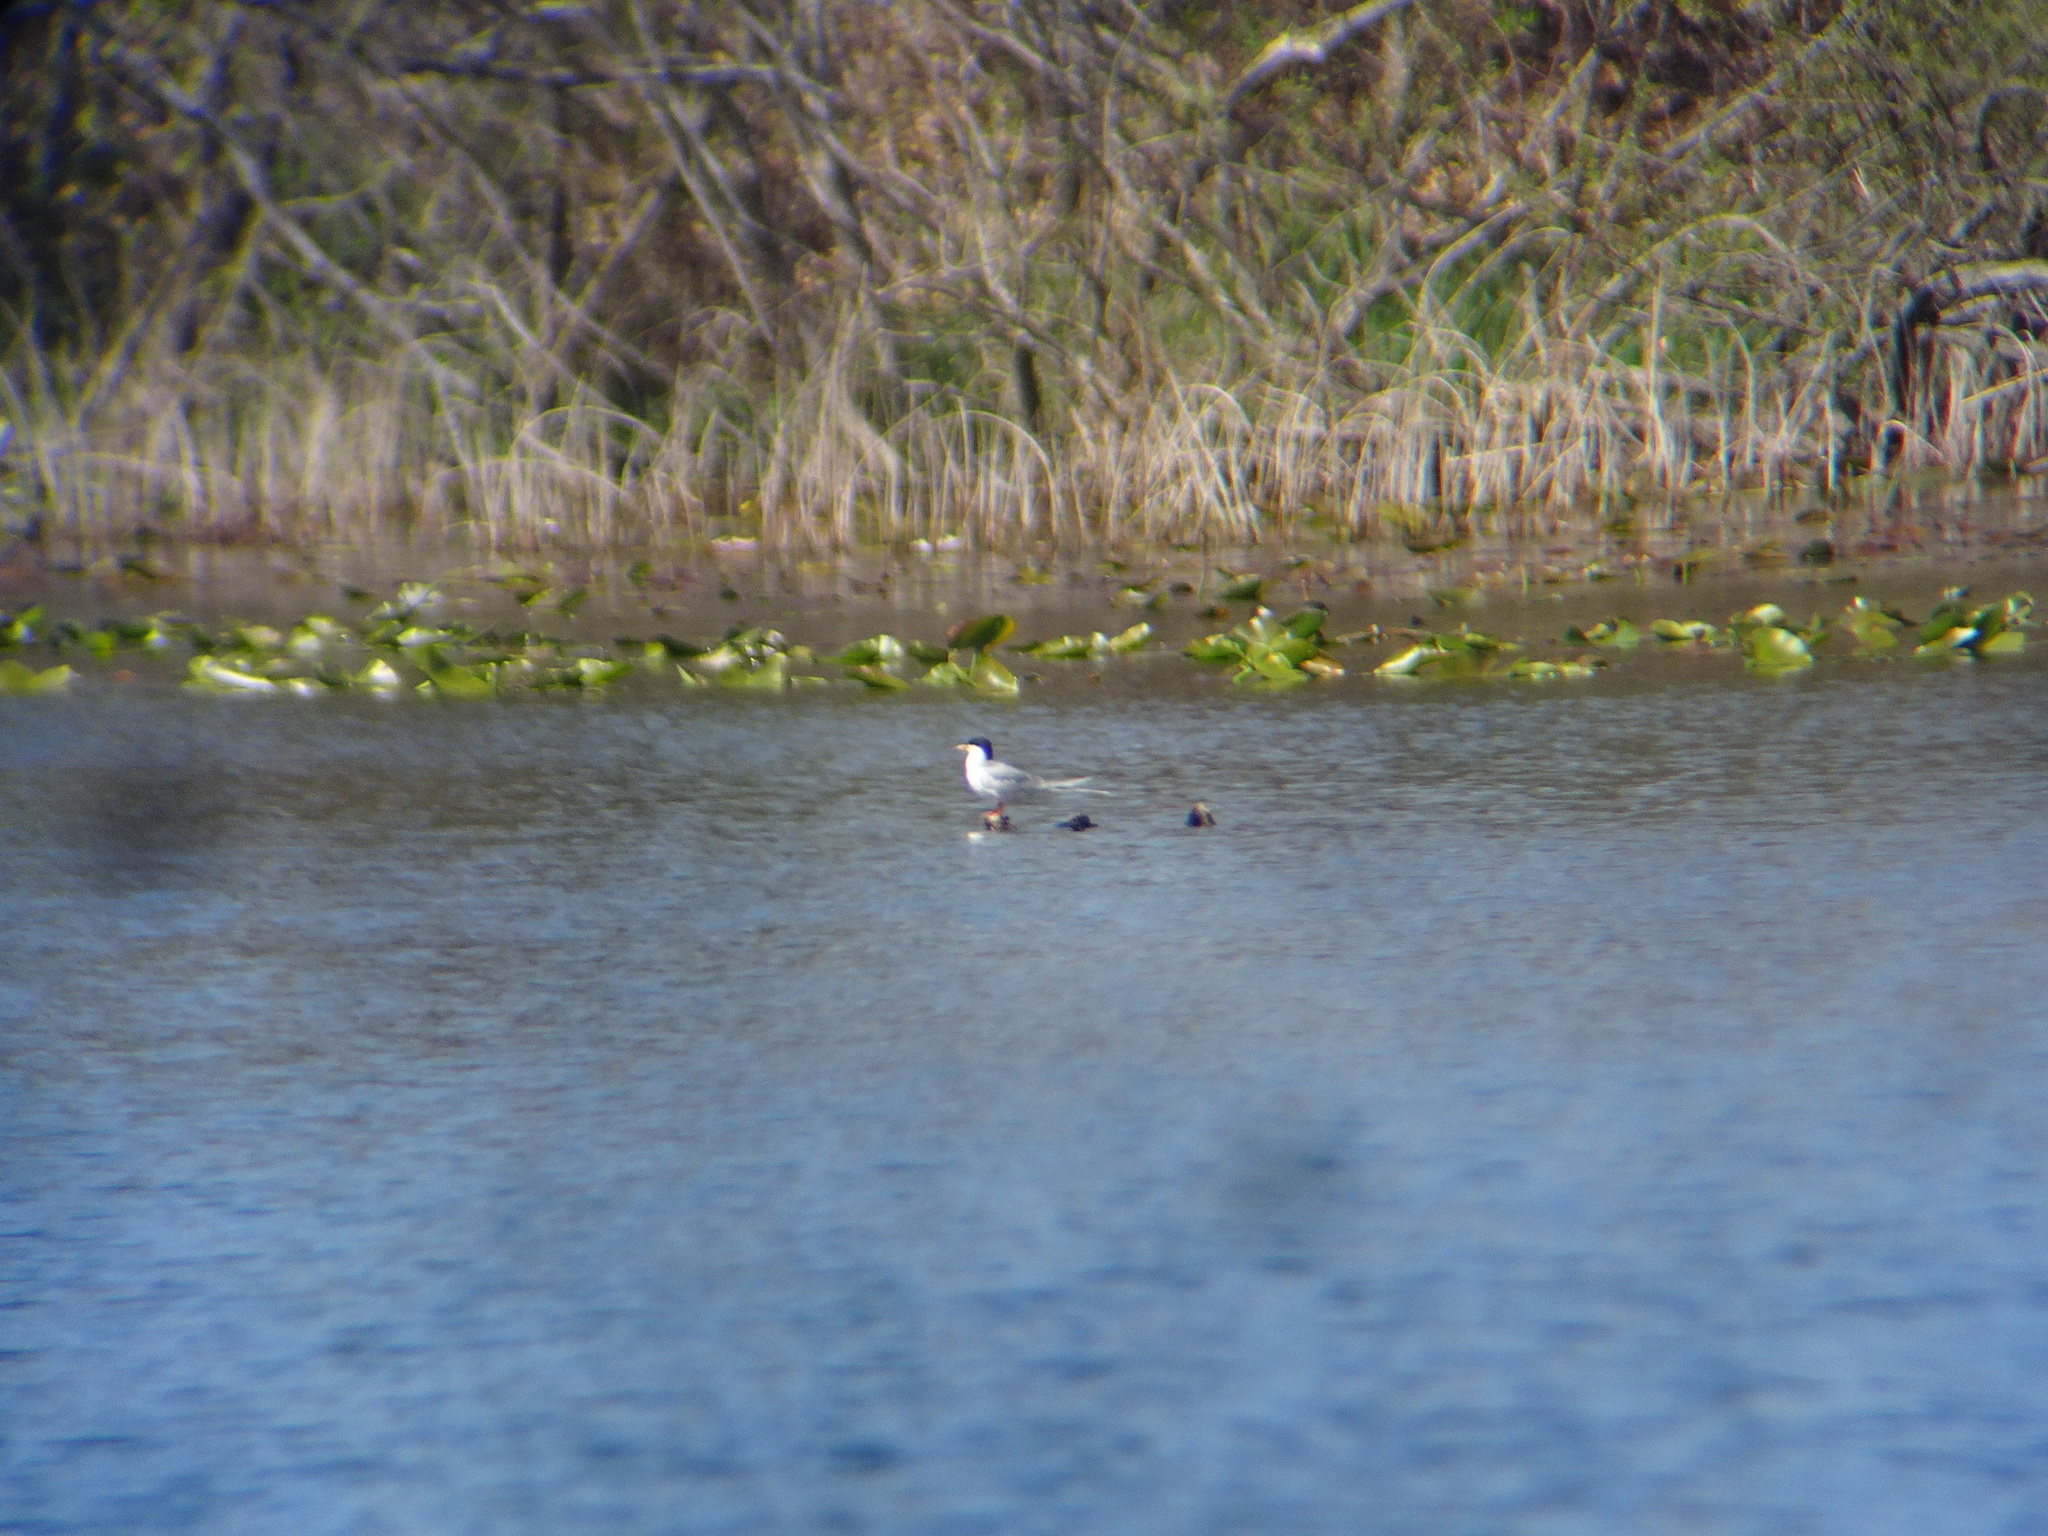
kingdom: Animalia
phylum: Chordata
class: Aves
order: Charadriiformes
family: Laridae
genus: Sterna
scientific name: Sterna forsteri
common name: Forster's tern
